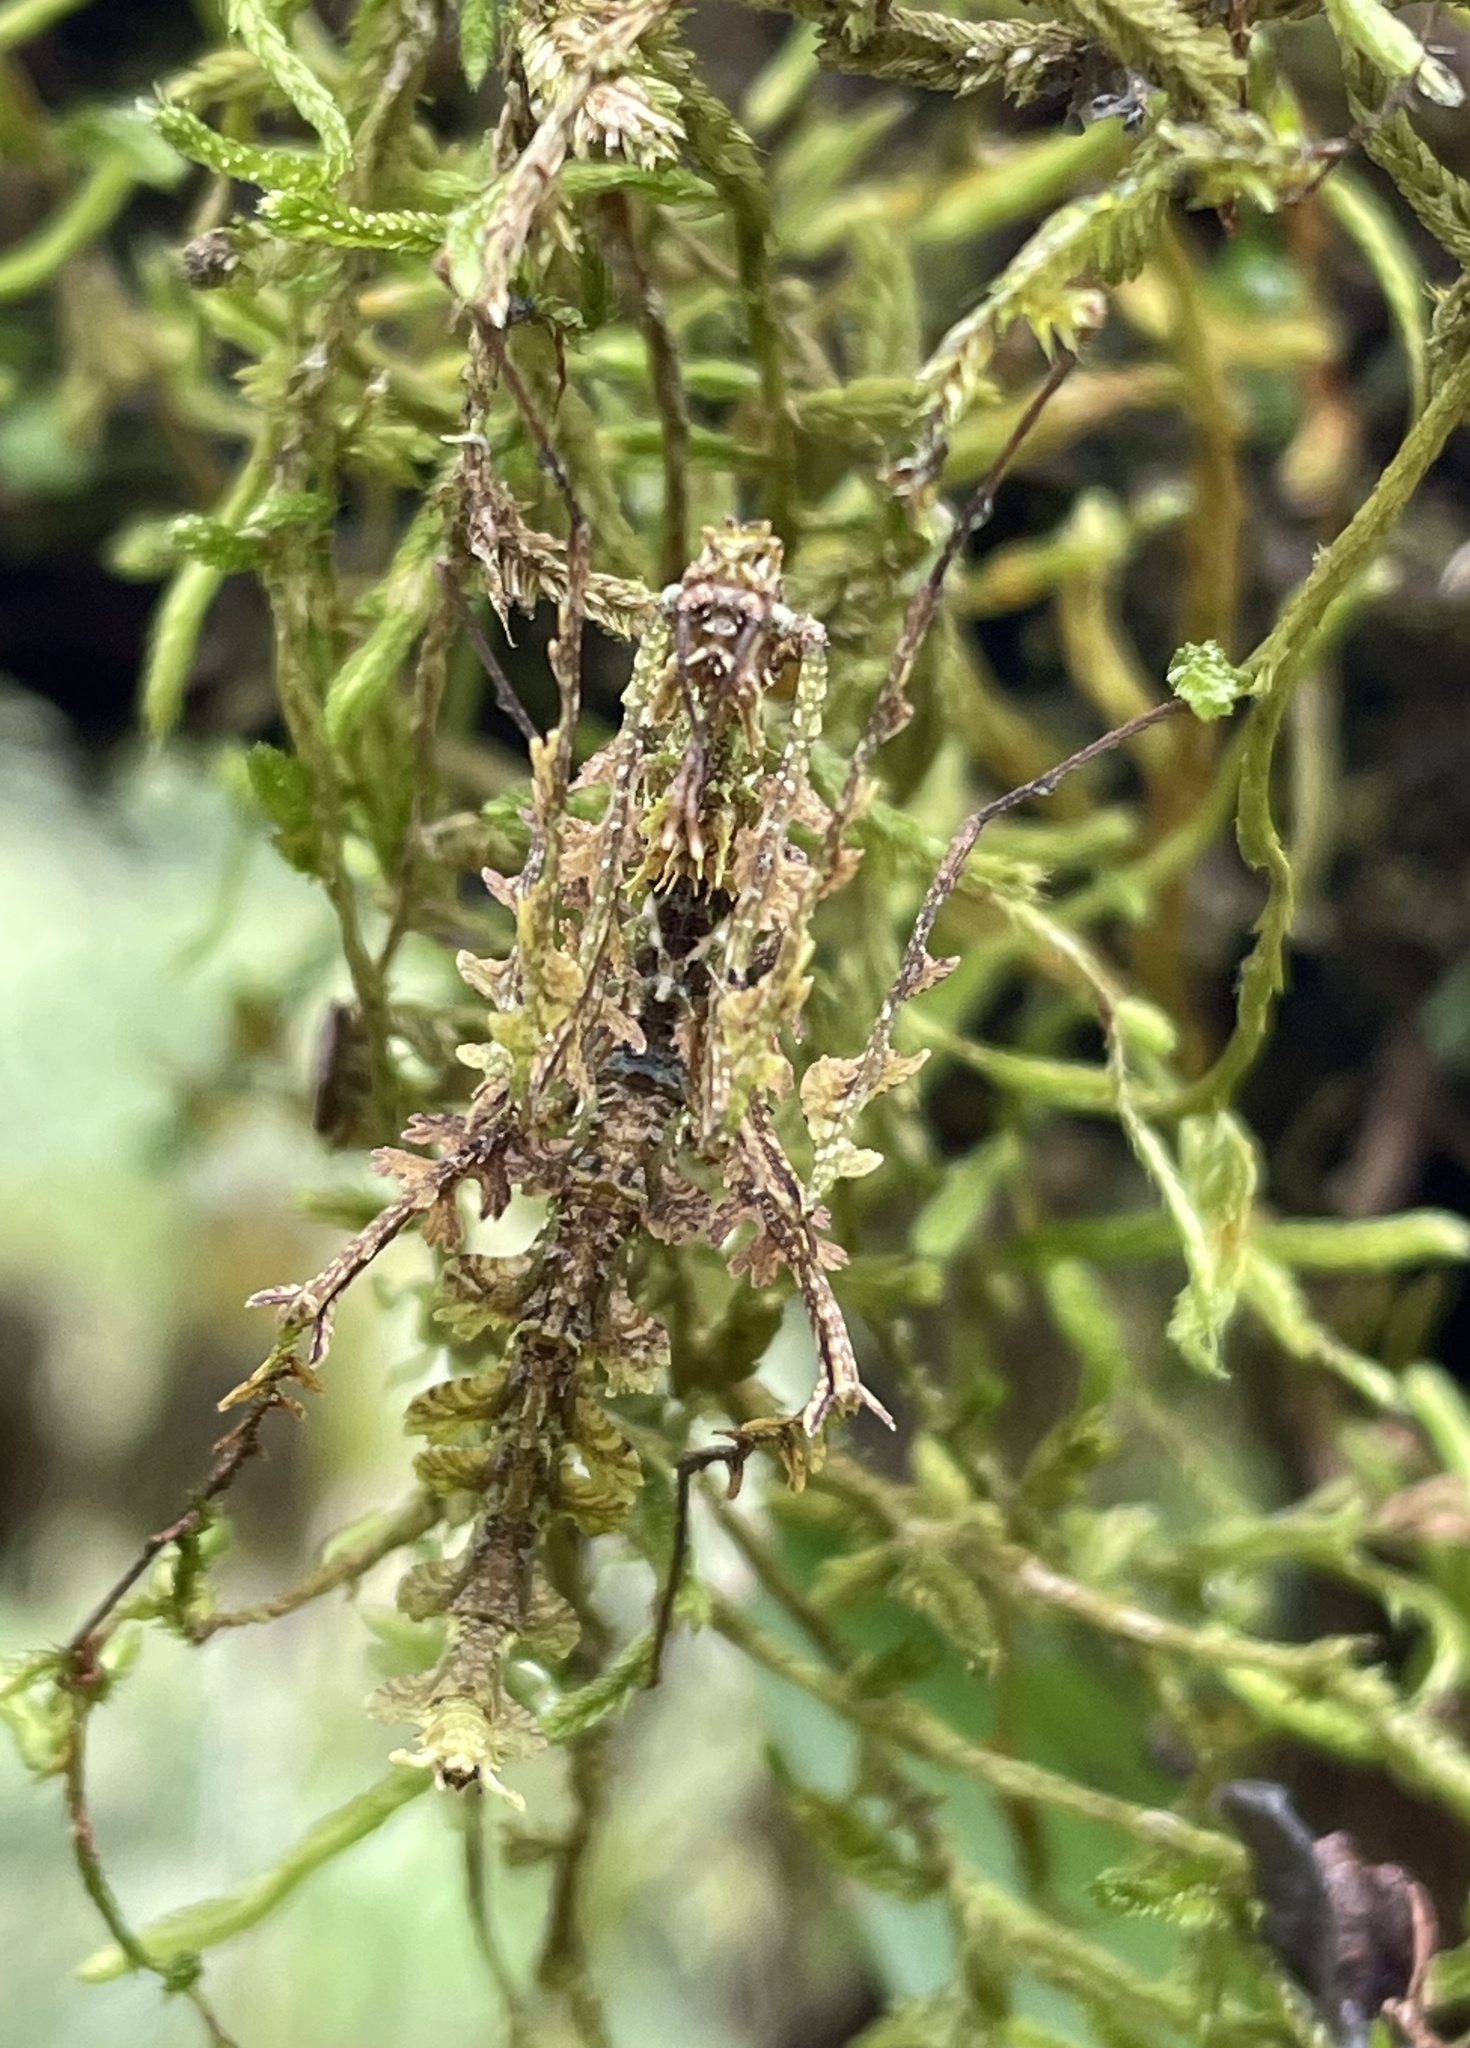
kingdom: Animalia
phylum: Arthropoda
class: Insecta
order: Phasmida
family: Diapheromeridae
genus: Trychopeplus
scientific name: Trychopeplus laciniatus
